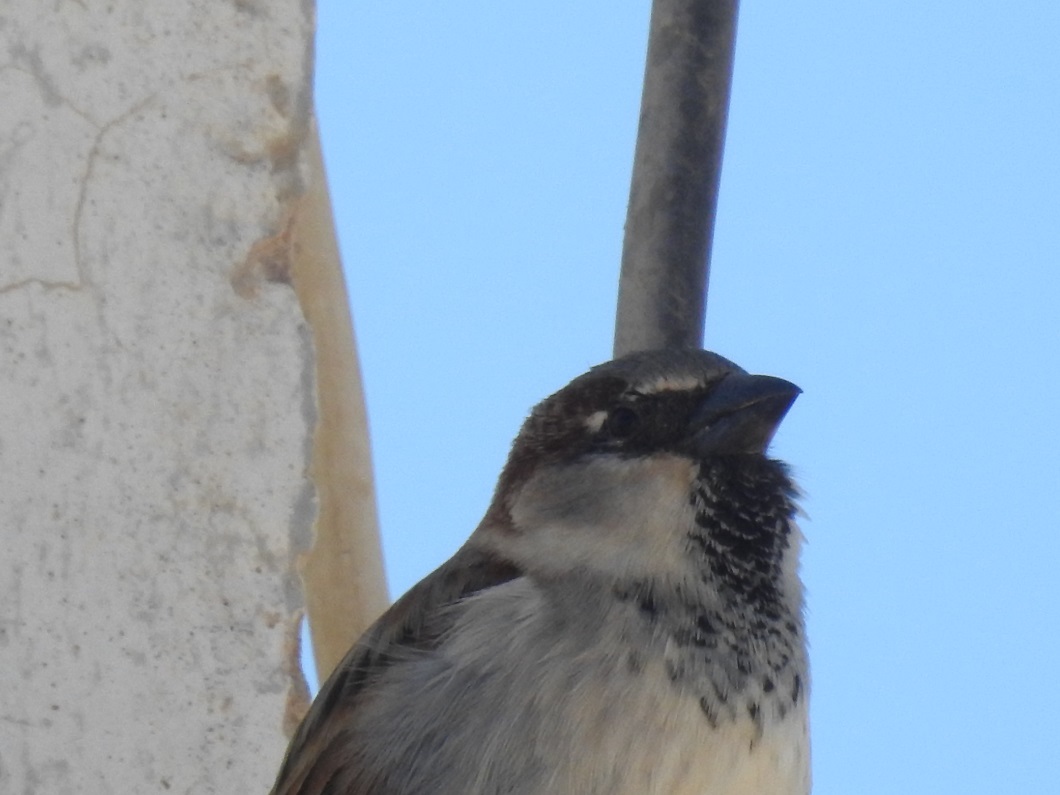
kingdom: Animalia
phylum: Chordata
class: Aves
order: Passeriformes
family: Passeridae
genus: Passer
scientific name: Passer domesticus
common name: House sparrow
